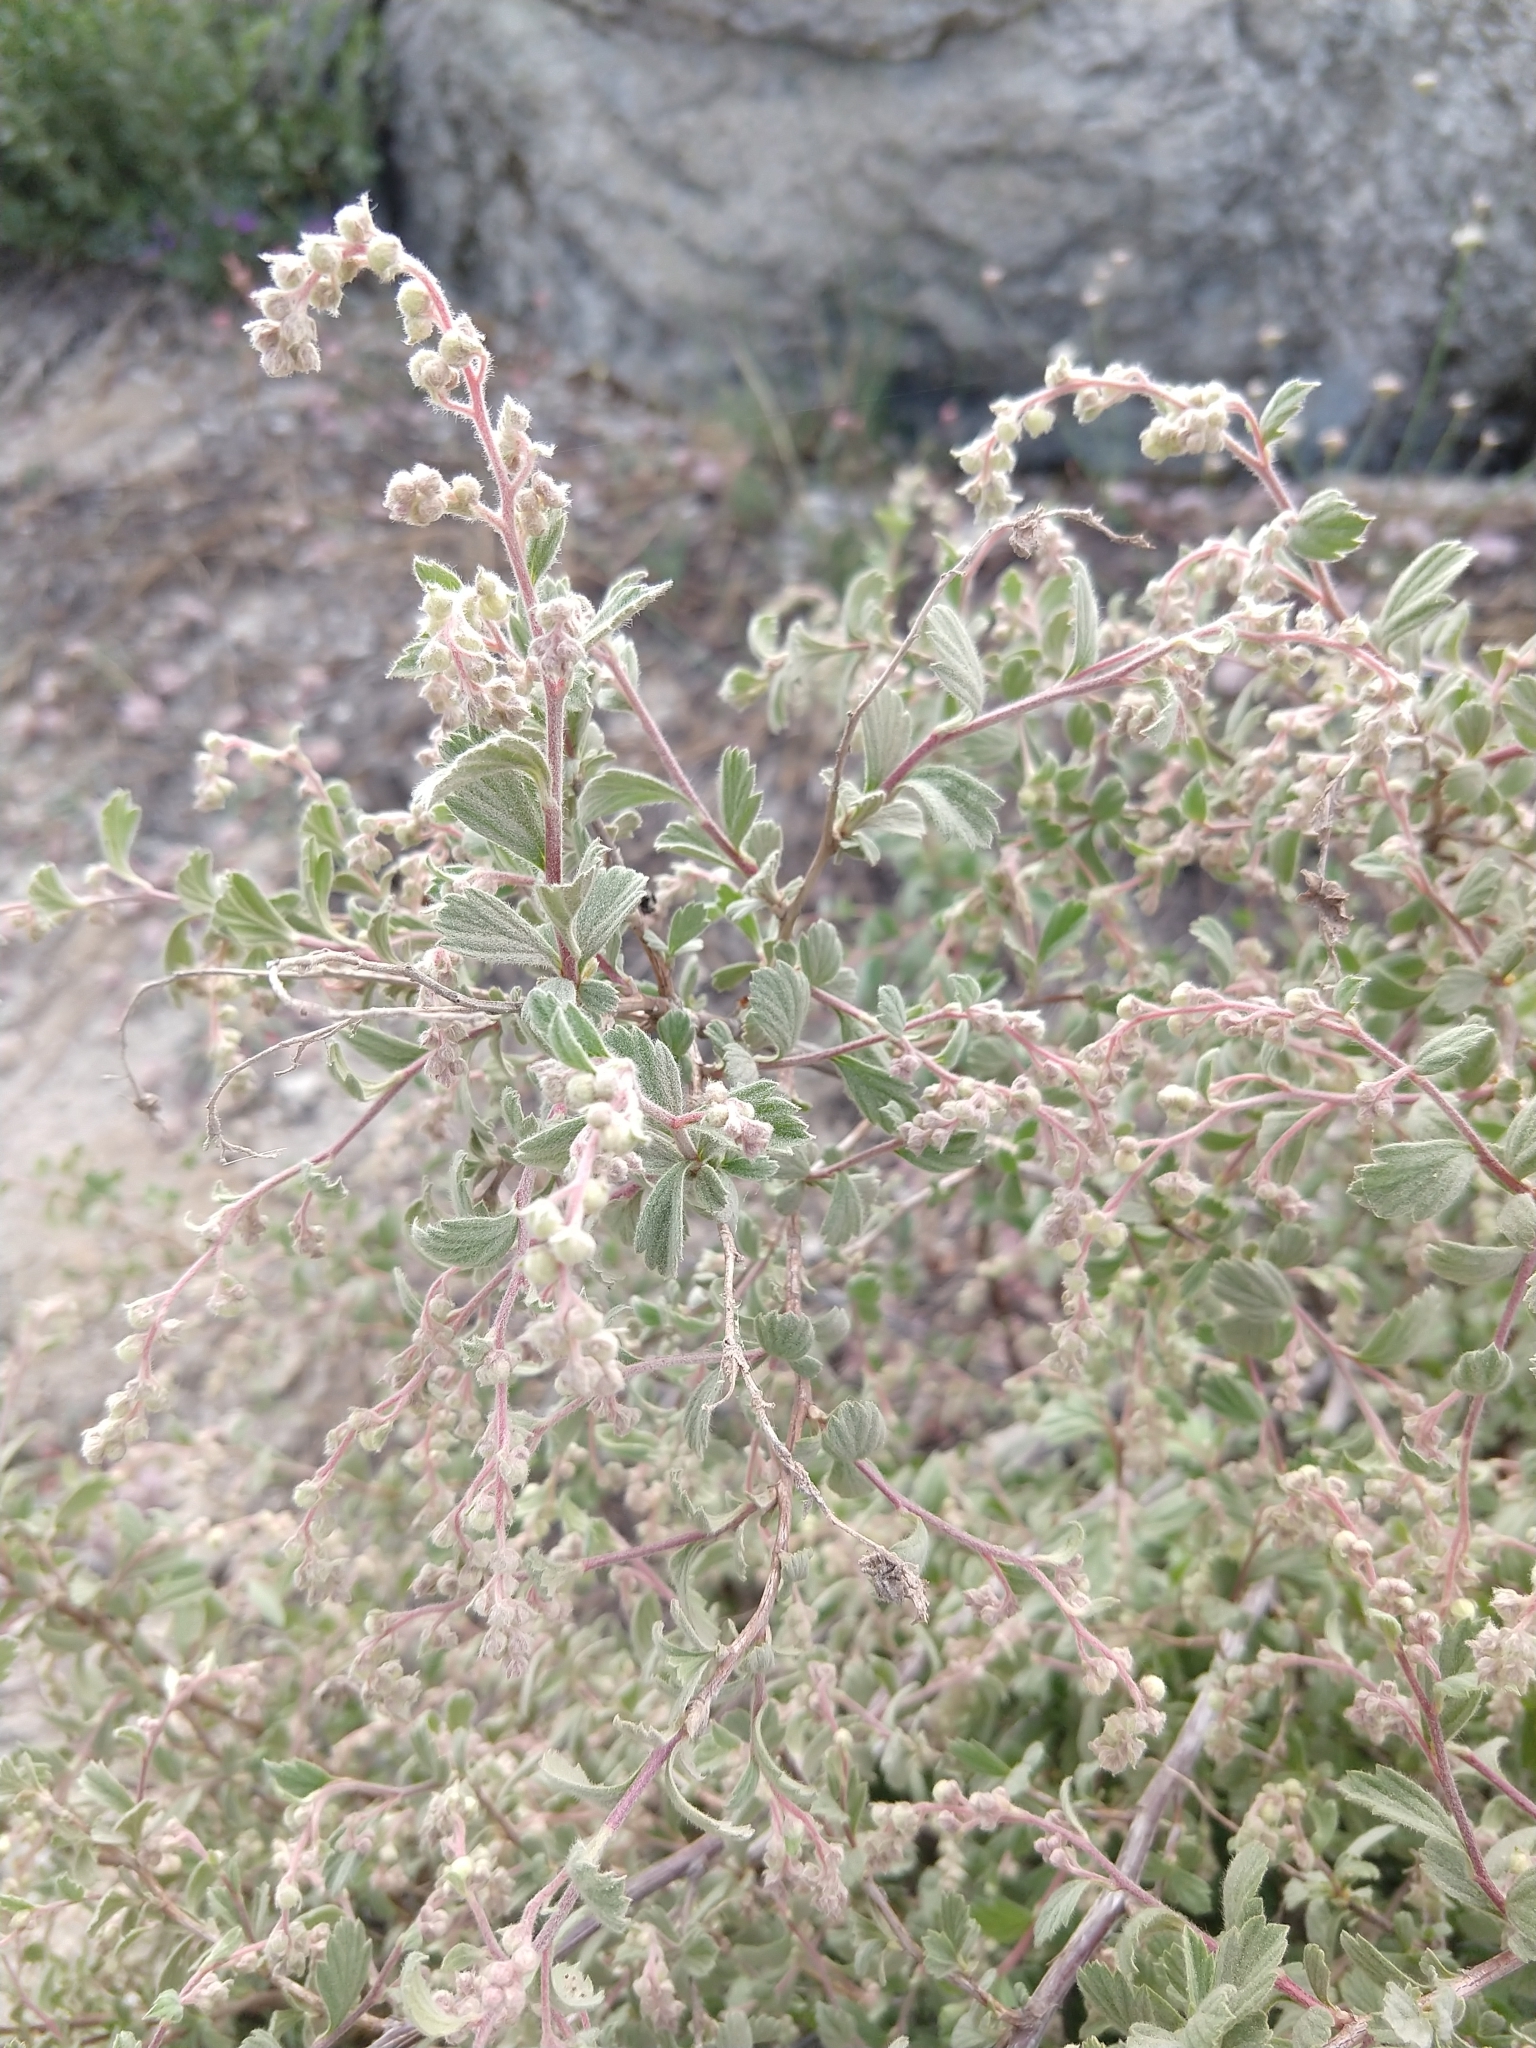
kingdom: Plantae
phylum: Tracheophyta
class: Magnoliopsida
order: Rosales
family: Rosaceae
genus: Holodiscus
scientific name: Holodiscus discolor
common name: Oceanspray
